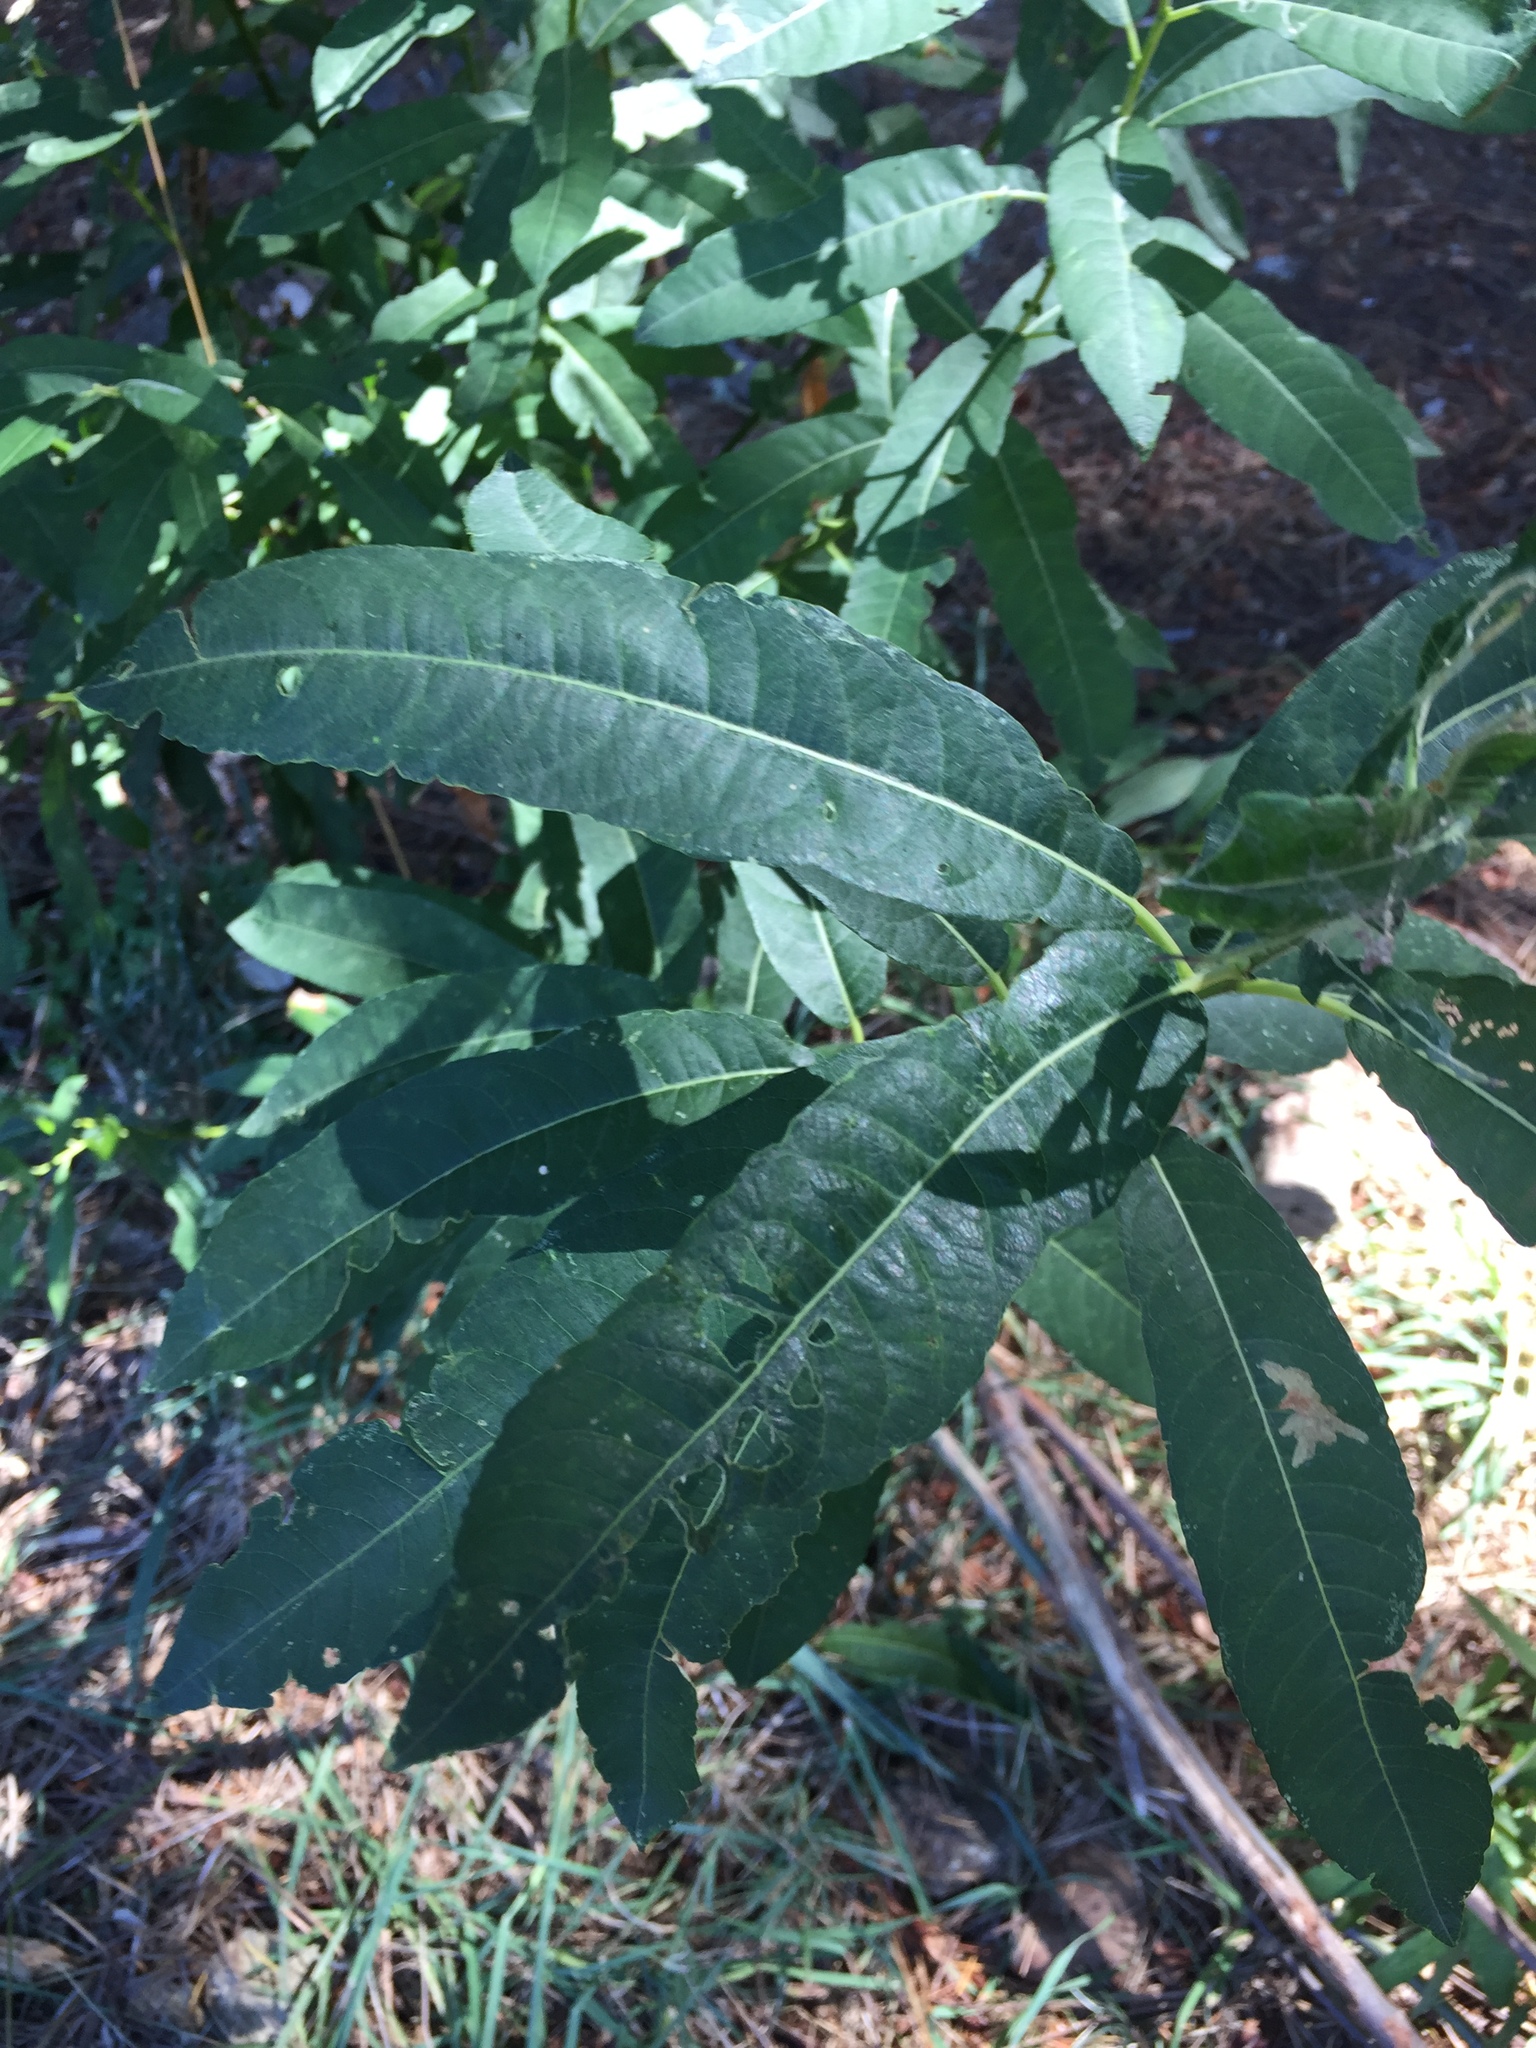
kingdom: Plantae
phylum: Tracheophyta
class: Magnoliopsida
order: Malpighiales
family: Salicaceae
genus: Salix
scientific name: Salix lasiolepis
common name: Arroyo willow
